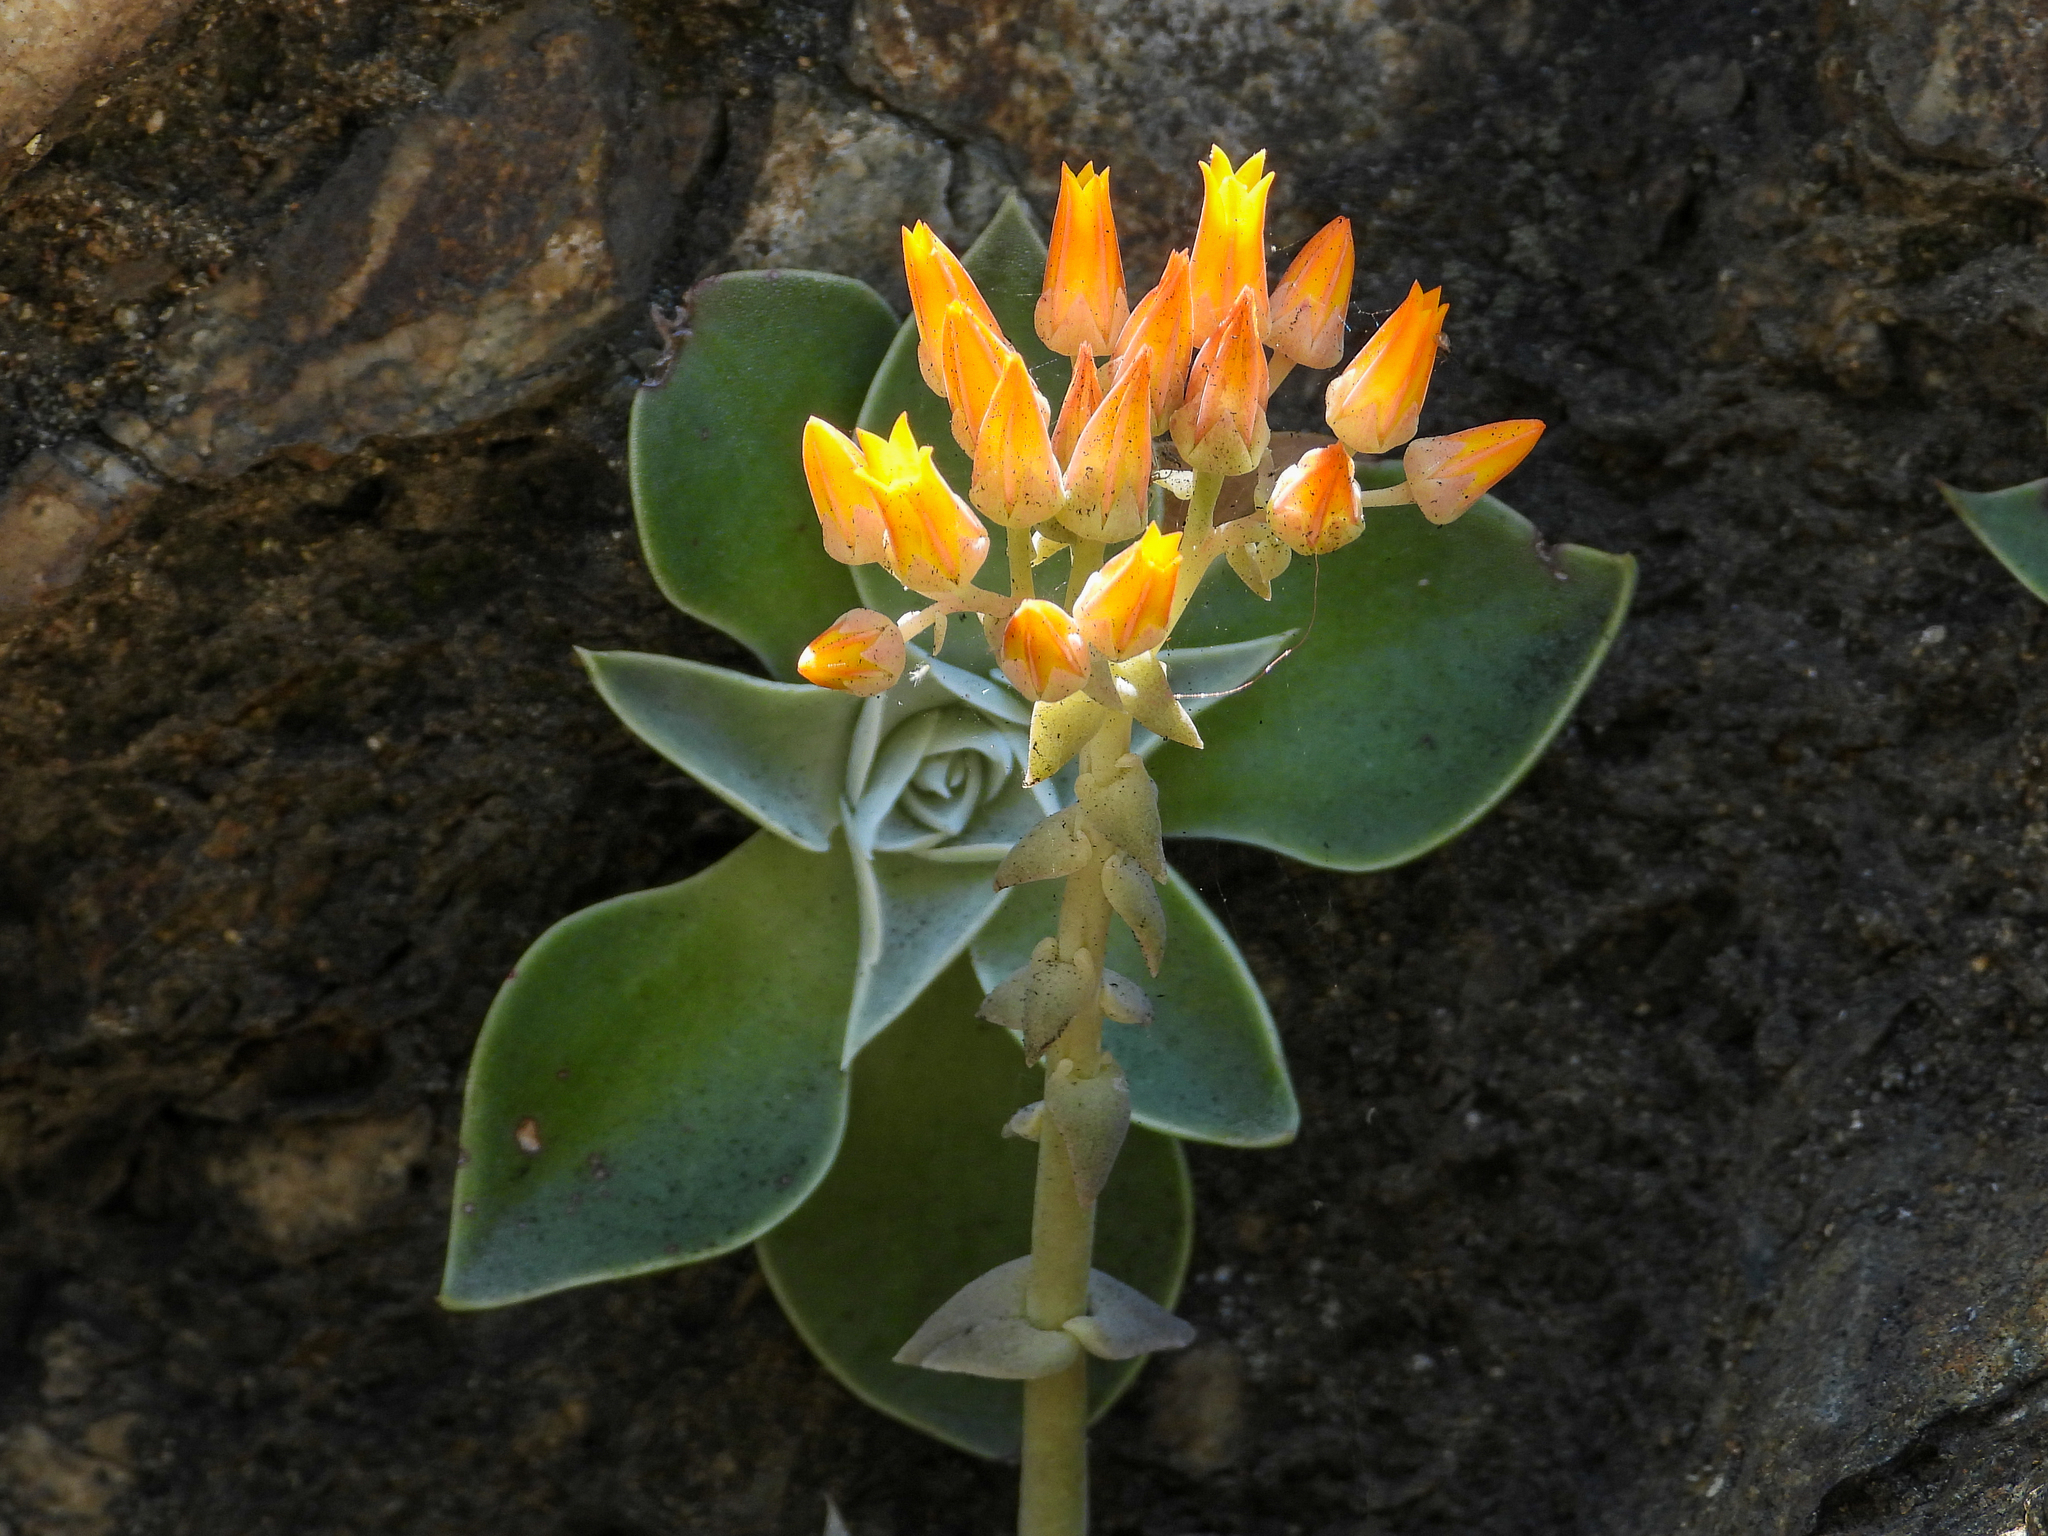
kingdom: Plantae
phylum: Tracheophyta
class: Magnoliopsida
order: Saxifragales
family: Crassulaceae
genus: Dudleya
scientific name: Dudleya cymosa
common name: Canyon dudleya
